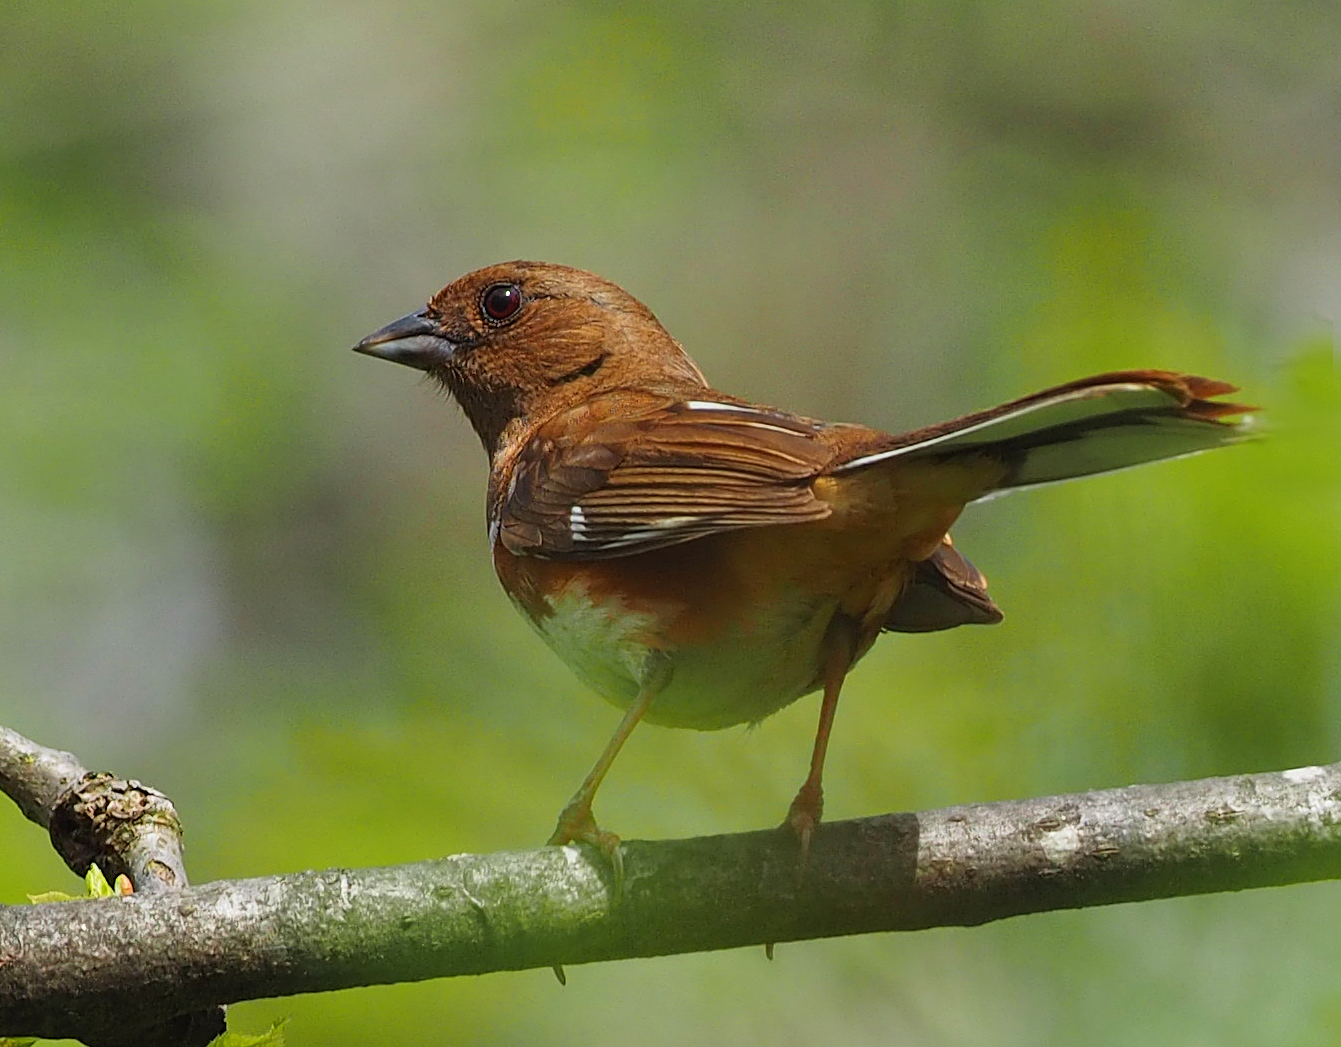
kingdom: Animalia
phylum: Chordata
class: Aves
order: Passeriformes
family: Passerellidae
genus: Pipilo
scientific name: Pipilo erythrophthalmus
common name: Eastern towhee
